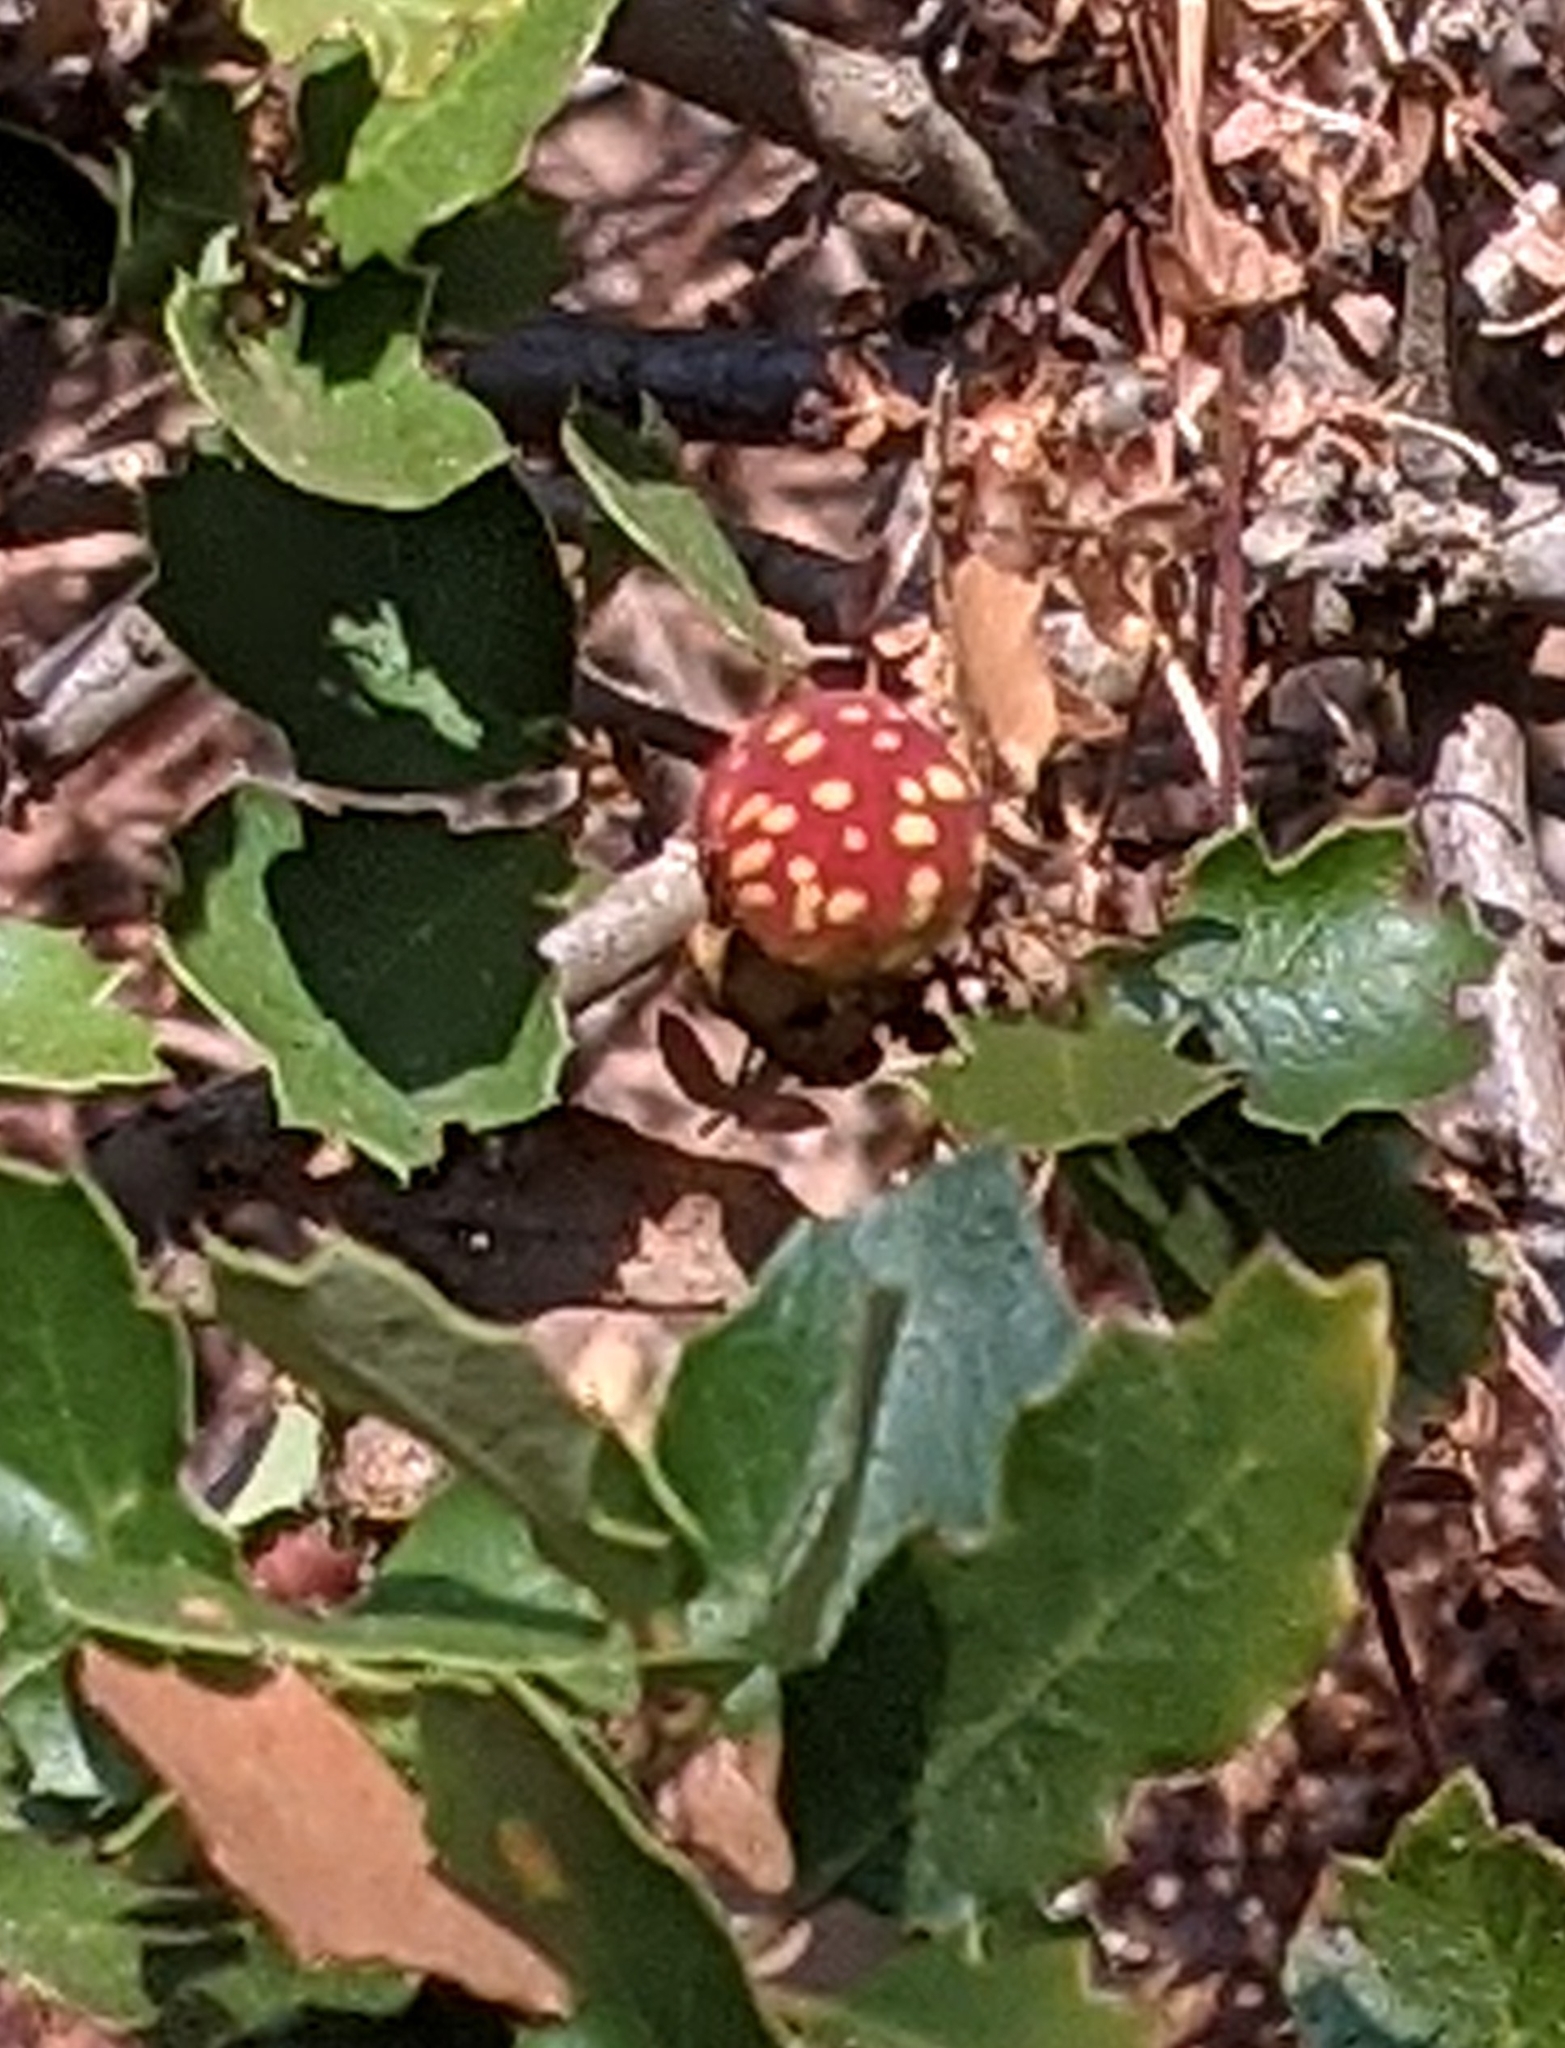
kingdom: Animalia
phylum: Arthropoda
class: Insecta
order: Hymenoptera
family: Cynipidae
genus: Burnettweldia
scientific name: Burnettweldia
